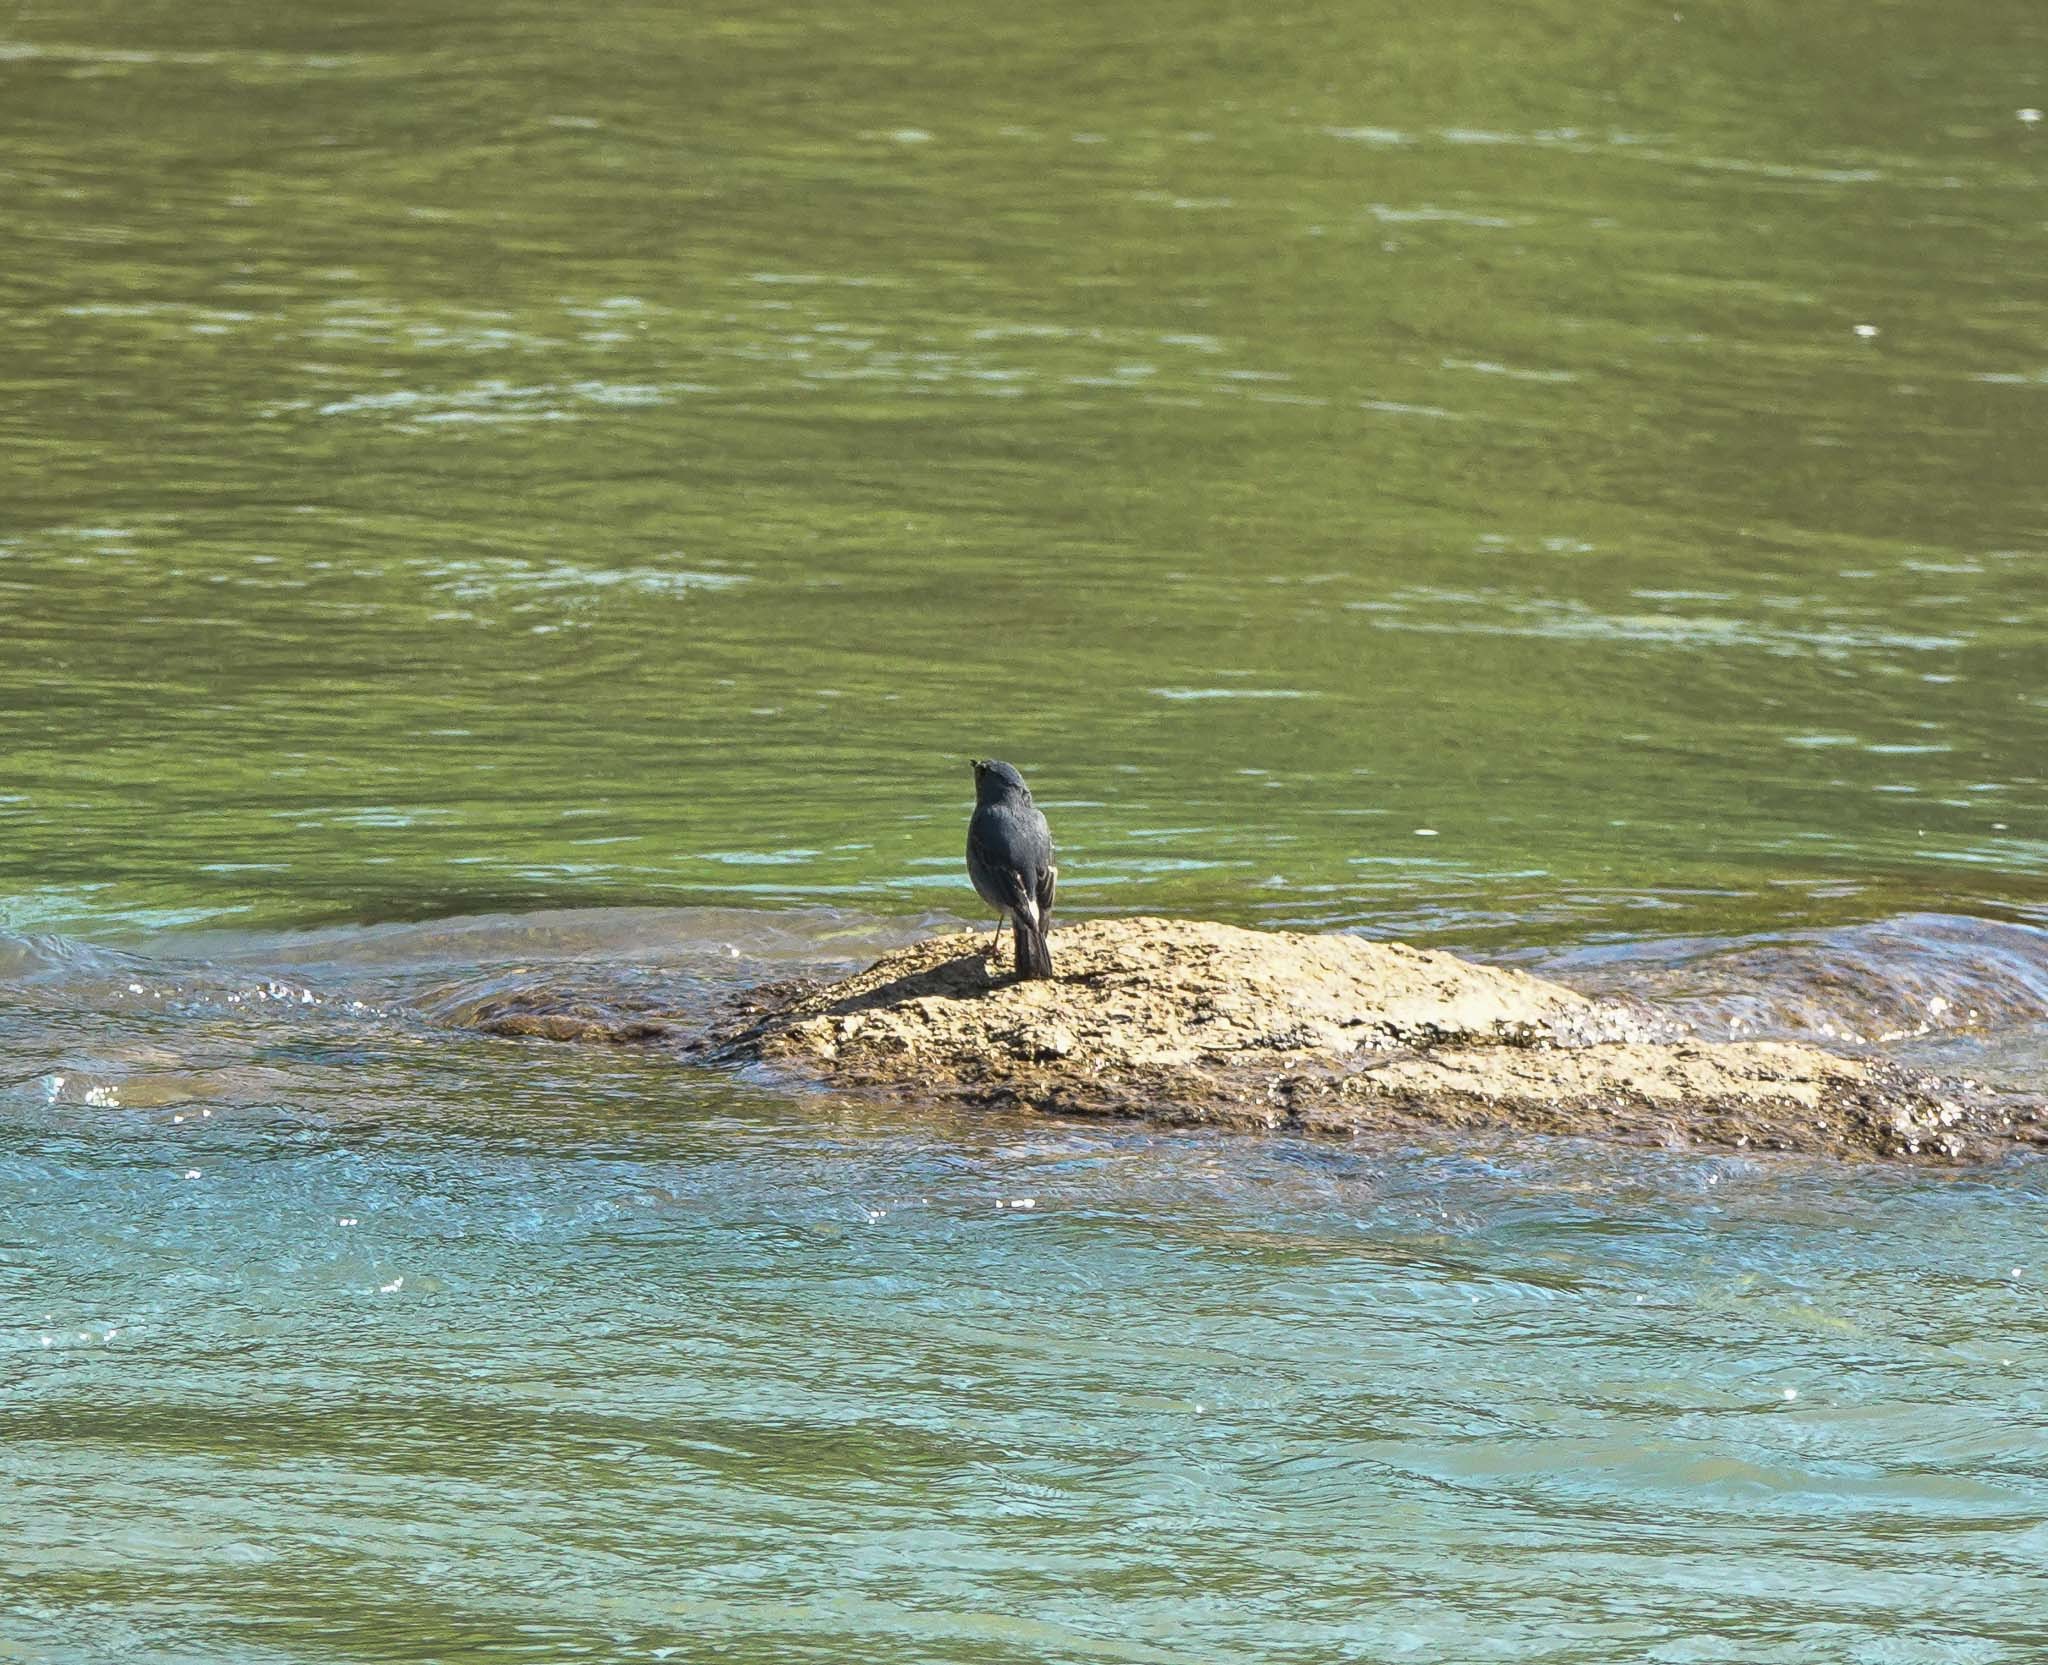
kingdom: Animalia
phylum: Chordata
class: Aves
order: Passeriformes
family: Muscicapidae
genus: Phoenicurus
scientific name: Phoenicurus fuliginosus
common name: Plumbeous water redstart
